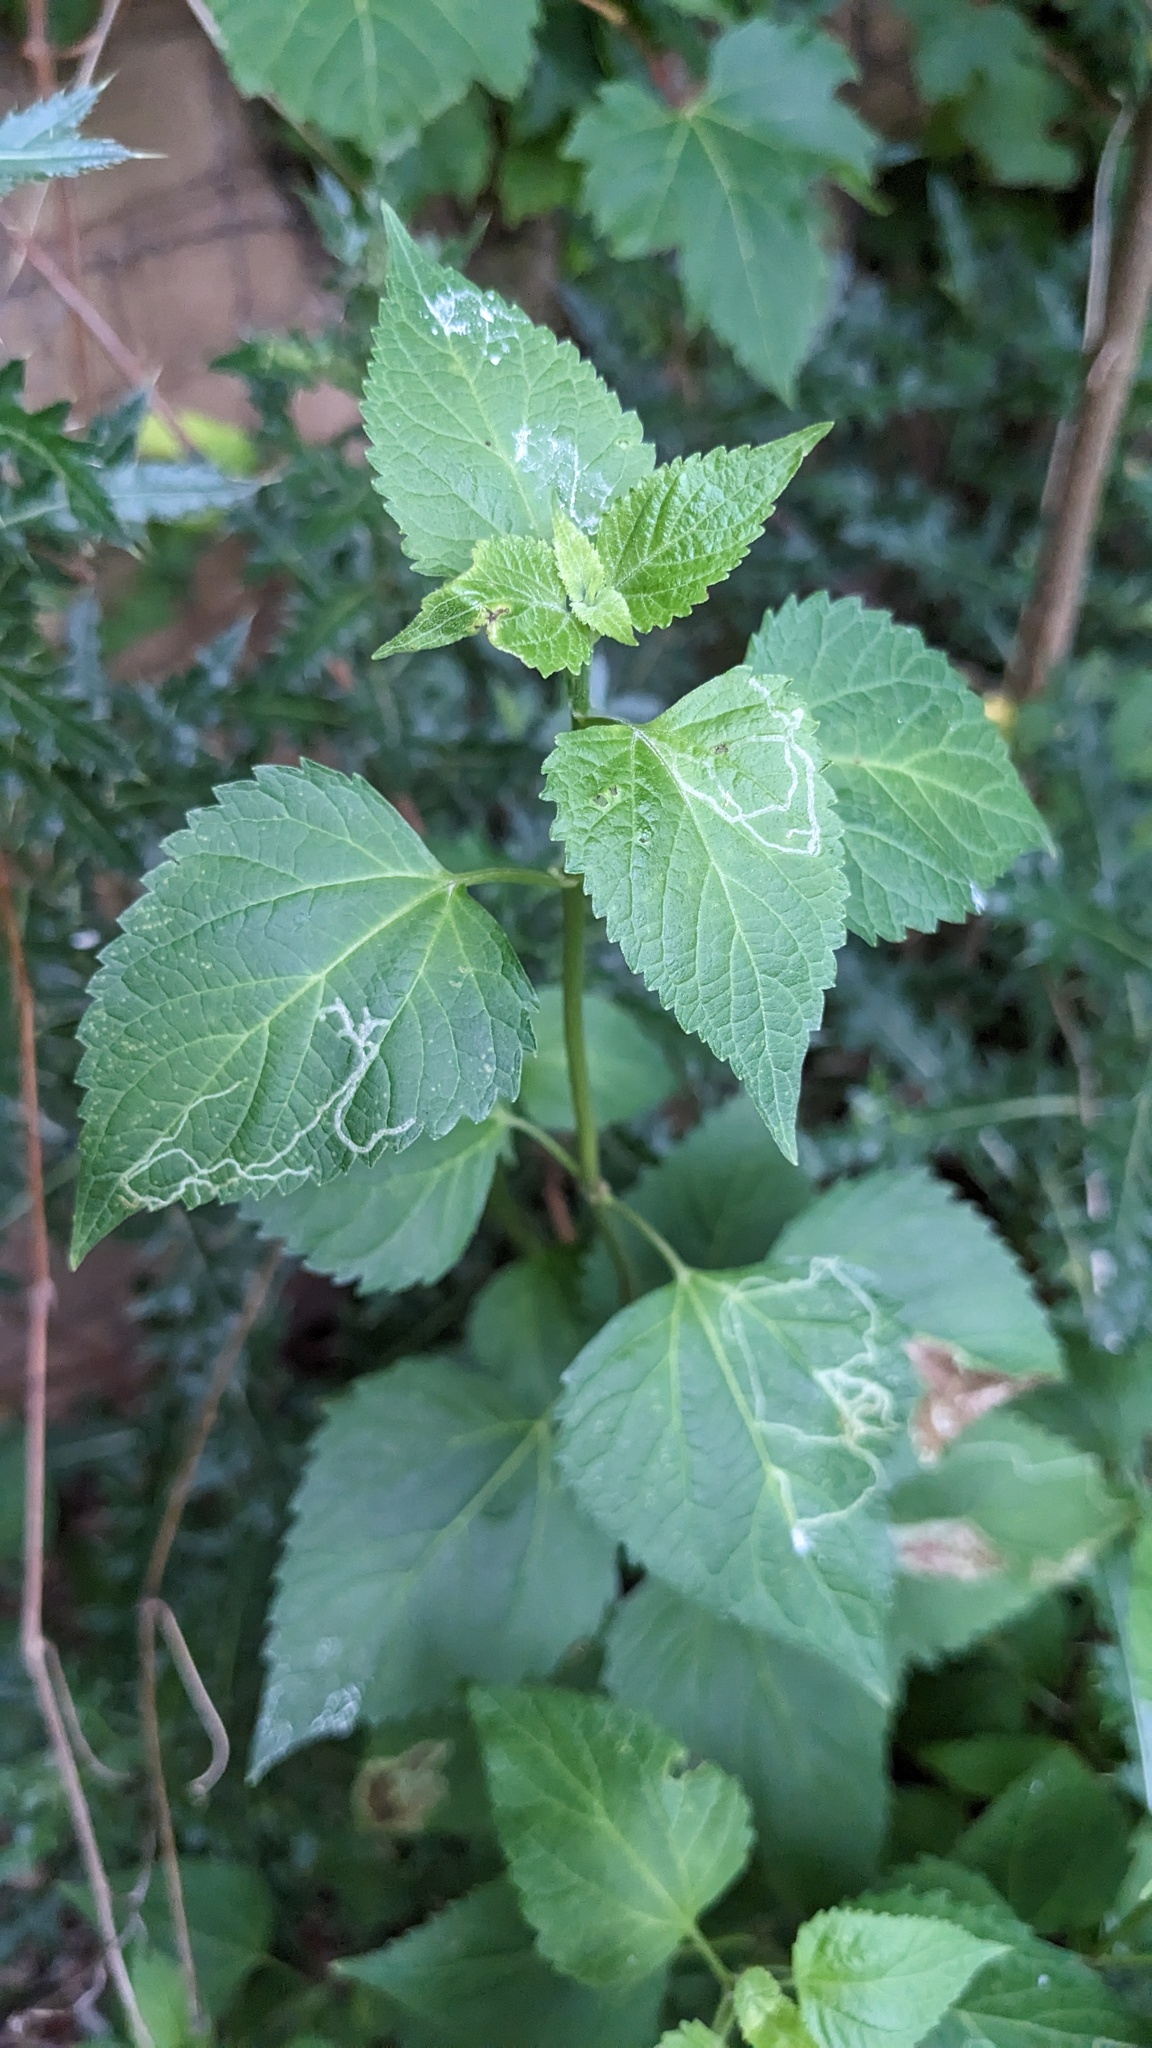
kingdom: Plantae
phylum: Tracheophyta
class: Magnoliopsida
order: Asterales
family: Asteraceae
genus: Ageratina
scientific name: Ageratina altissima
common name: White snakeroot
